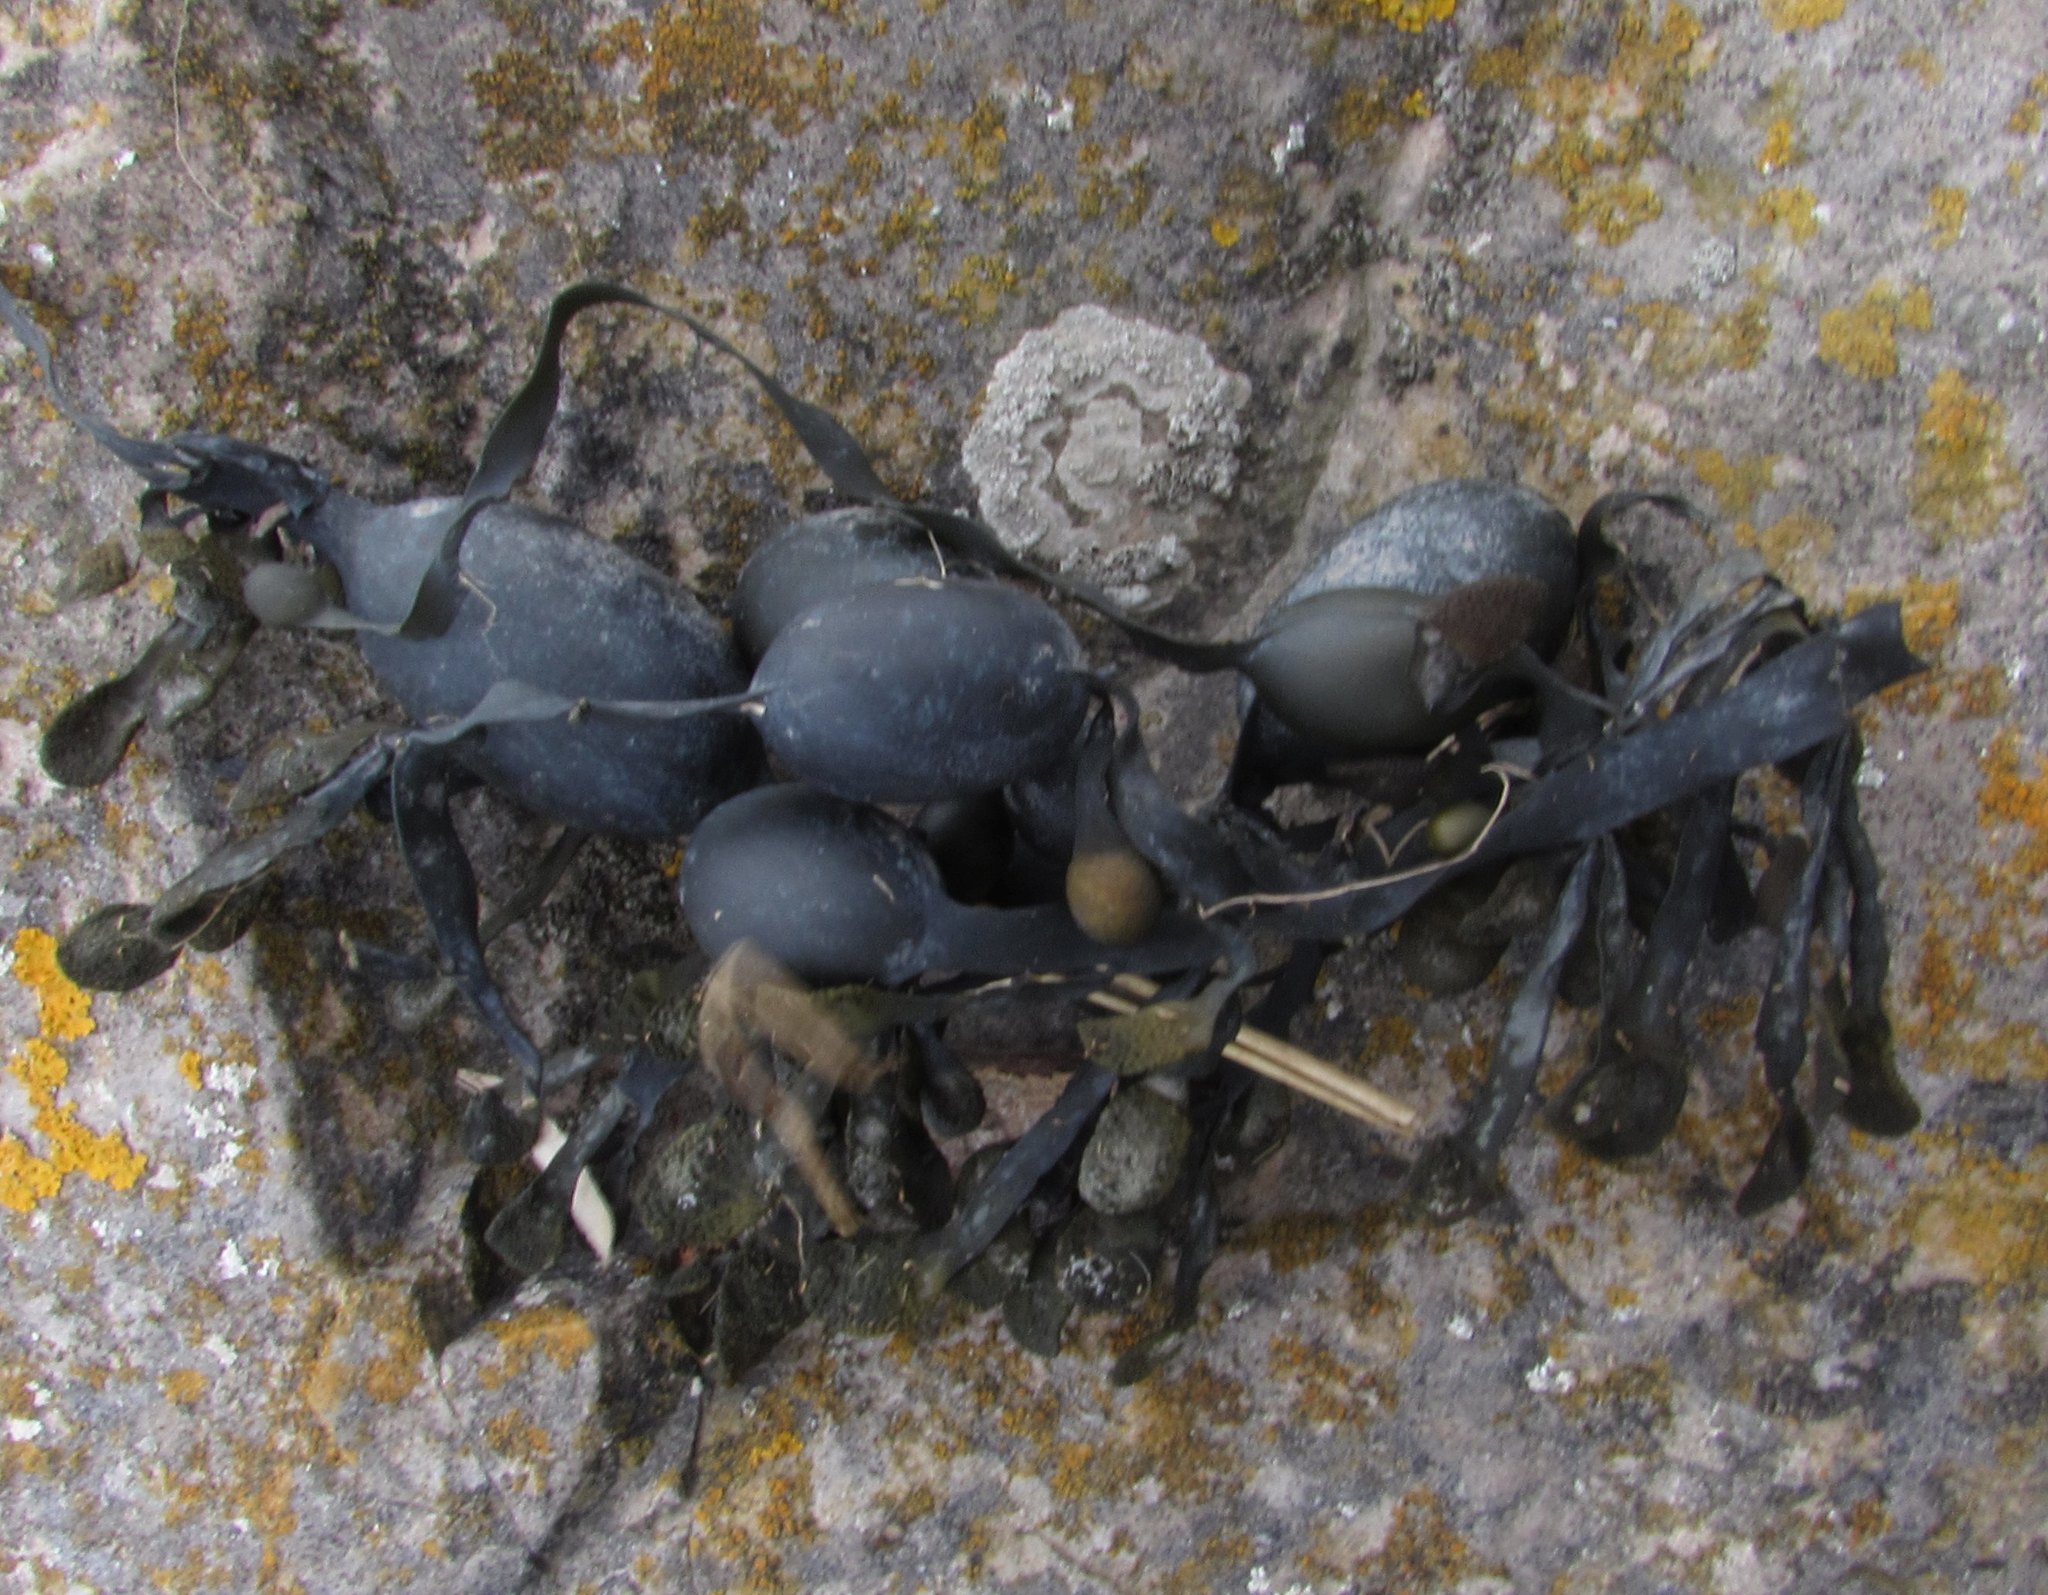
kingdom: Chromista
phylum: Ochrophyta
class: Phaeophyceae
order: Fucales
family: Fucaceae
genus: Ascophyllum
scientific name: Ascophyllum nodosum
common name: Knotted wrack
